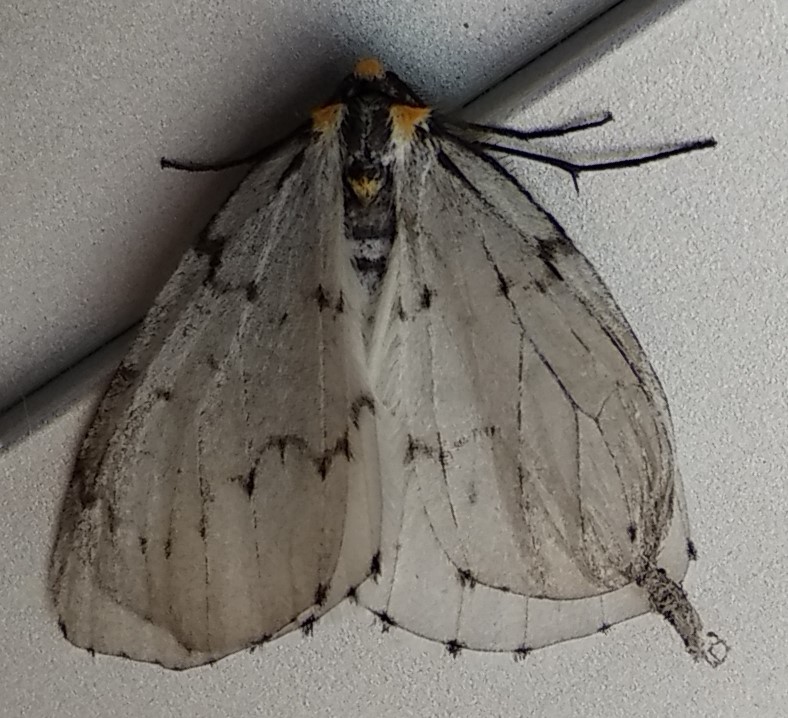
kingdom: Animalia
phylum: Arthropoda
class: Insecta
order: Lepidoptera
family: Geometridae
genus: Cingilia
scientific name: Cingilia catenaria
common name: Chain-dotted geometer
